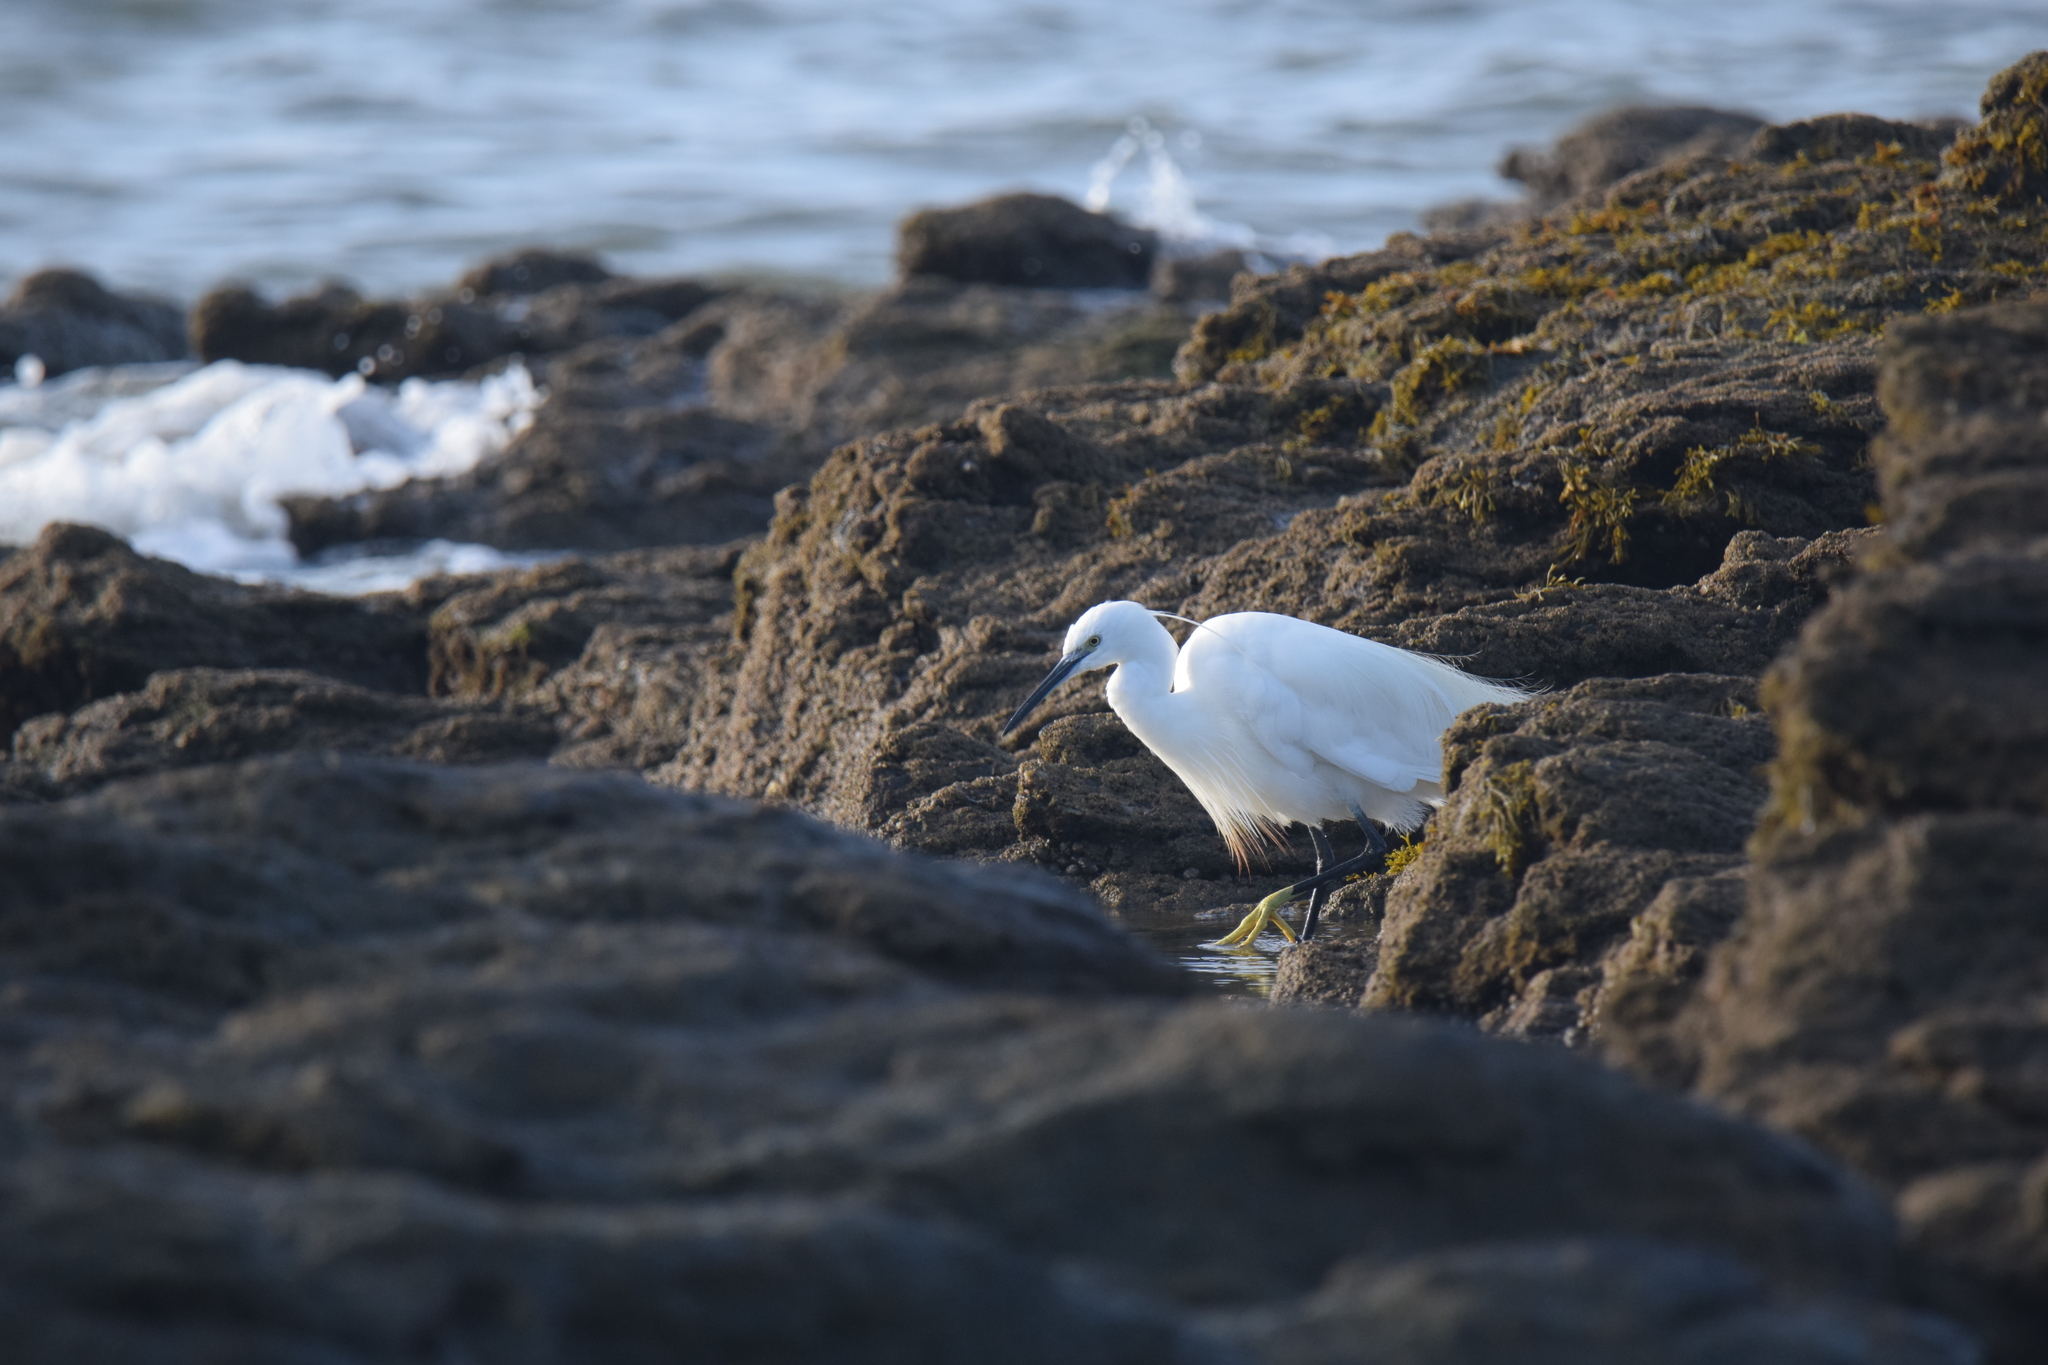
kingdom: Animalia
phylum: Chordata
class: Aves
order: Pelecaniformes
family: Ardeidae
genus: Egretta
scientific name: Egretta garzetta
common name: Little egret
